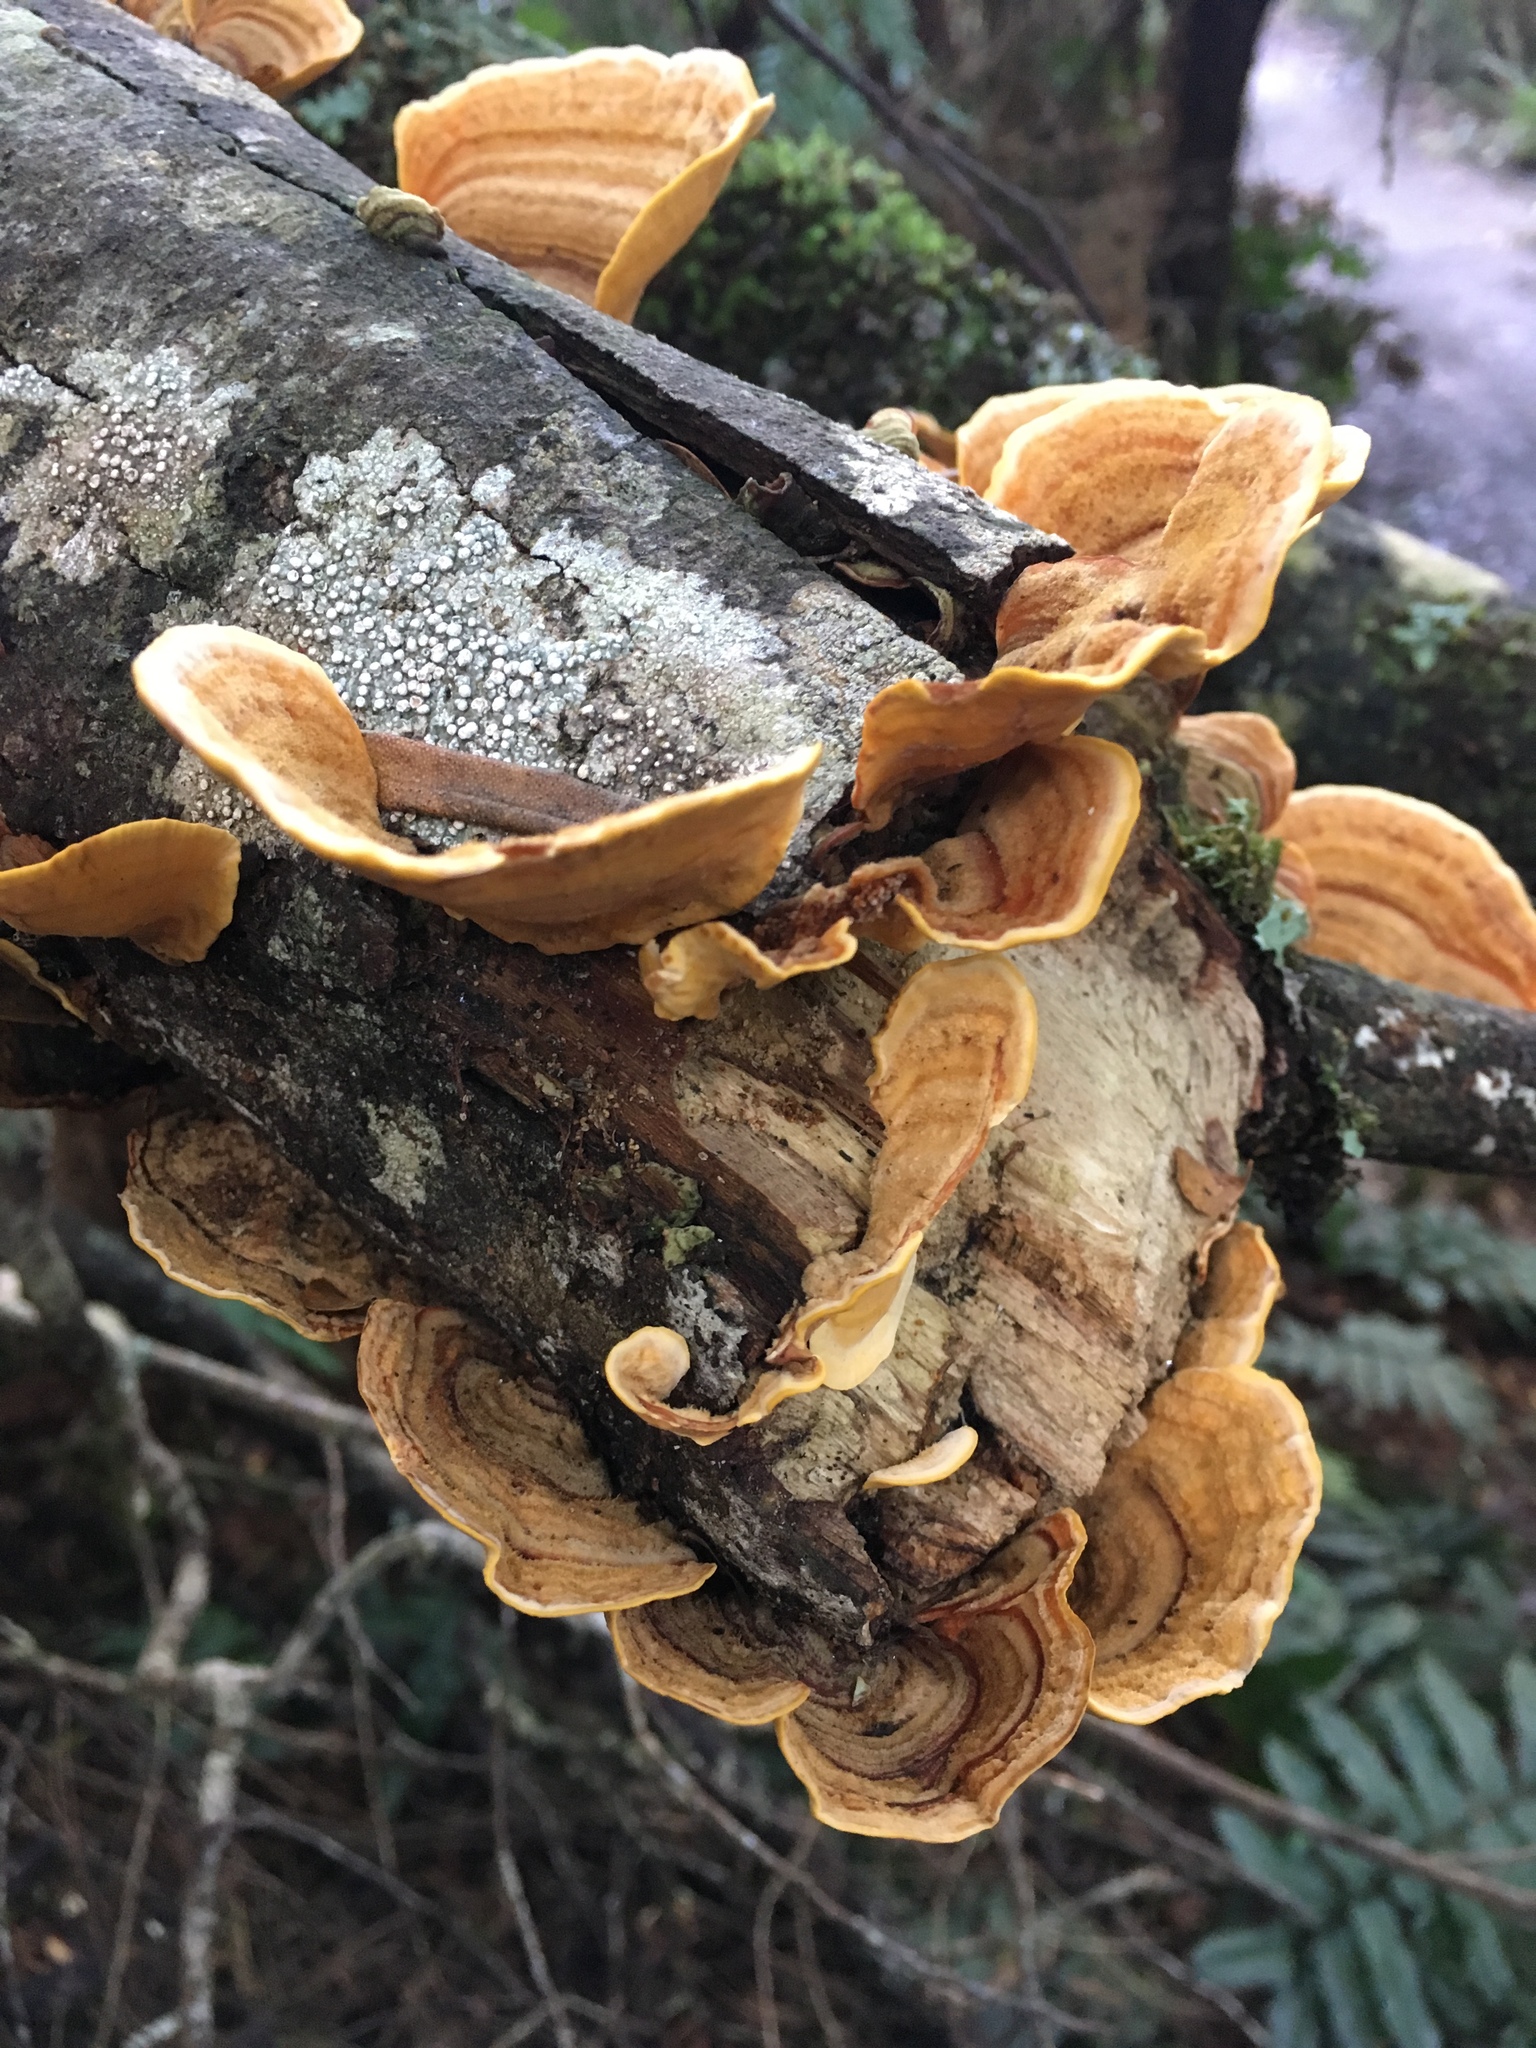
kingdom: Fungi
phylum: Basidiomycota
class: Agaricomycetes
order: Russulales
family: Stereaceae
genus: Stereum
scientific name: Stereum versicolor
